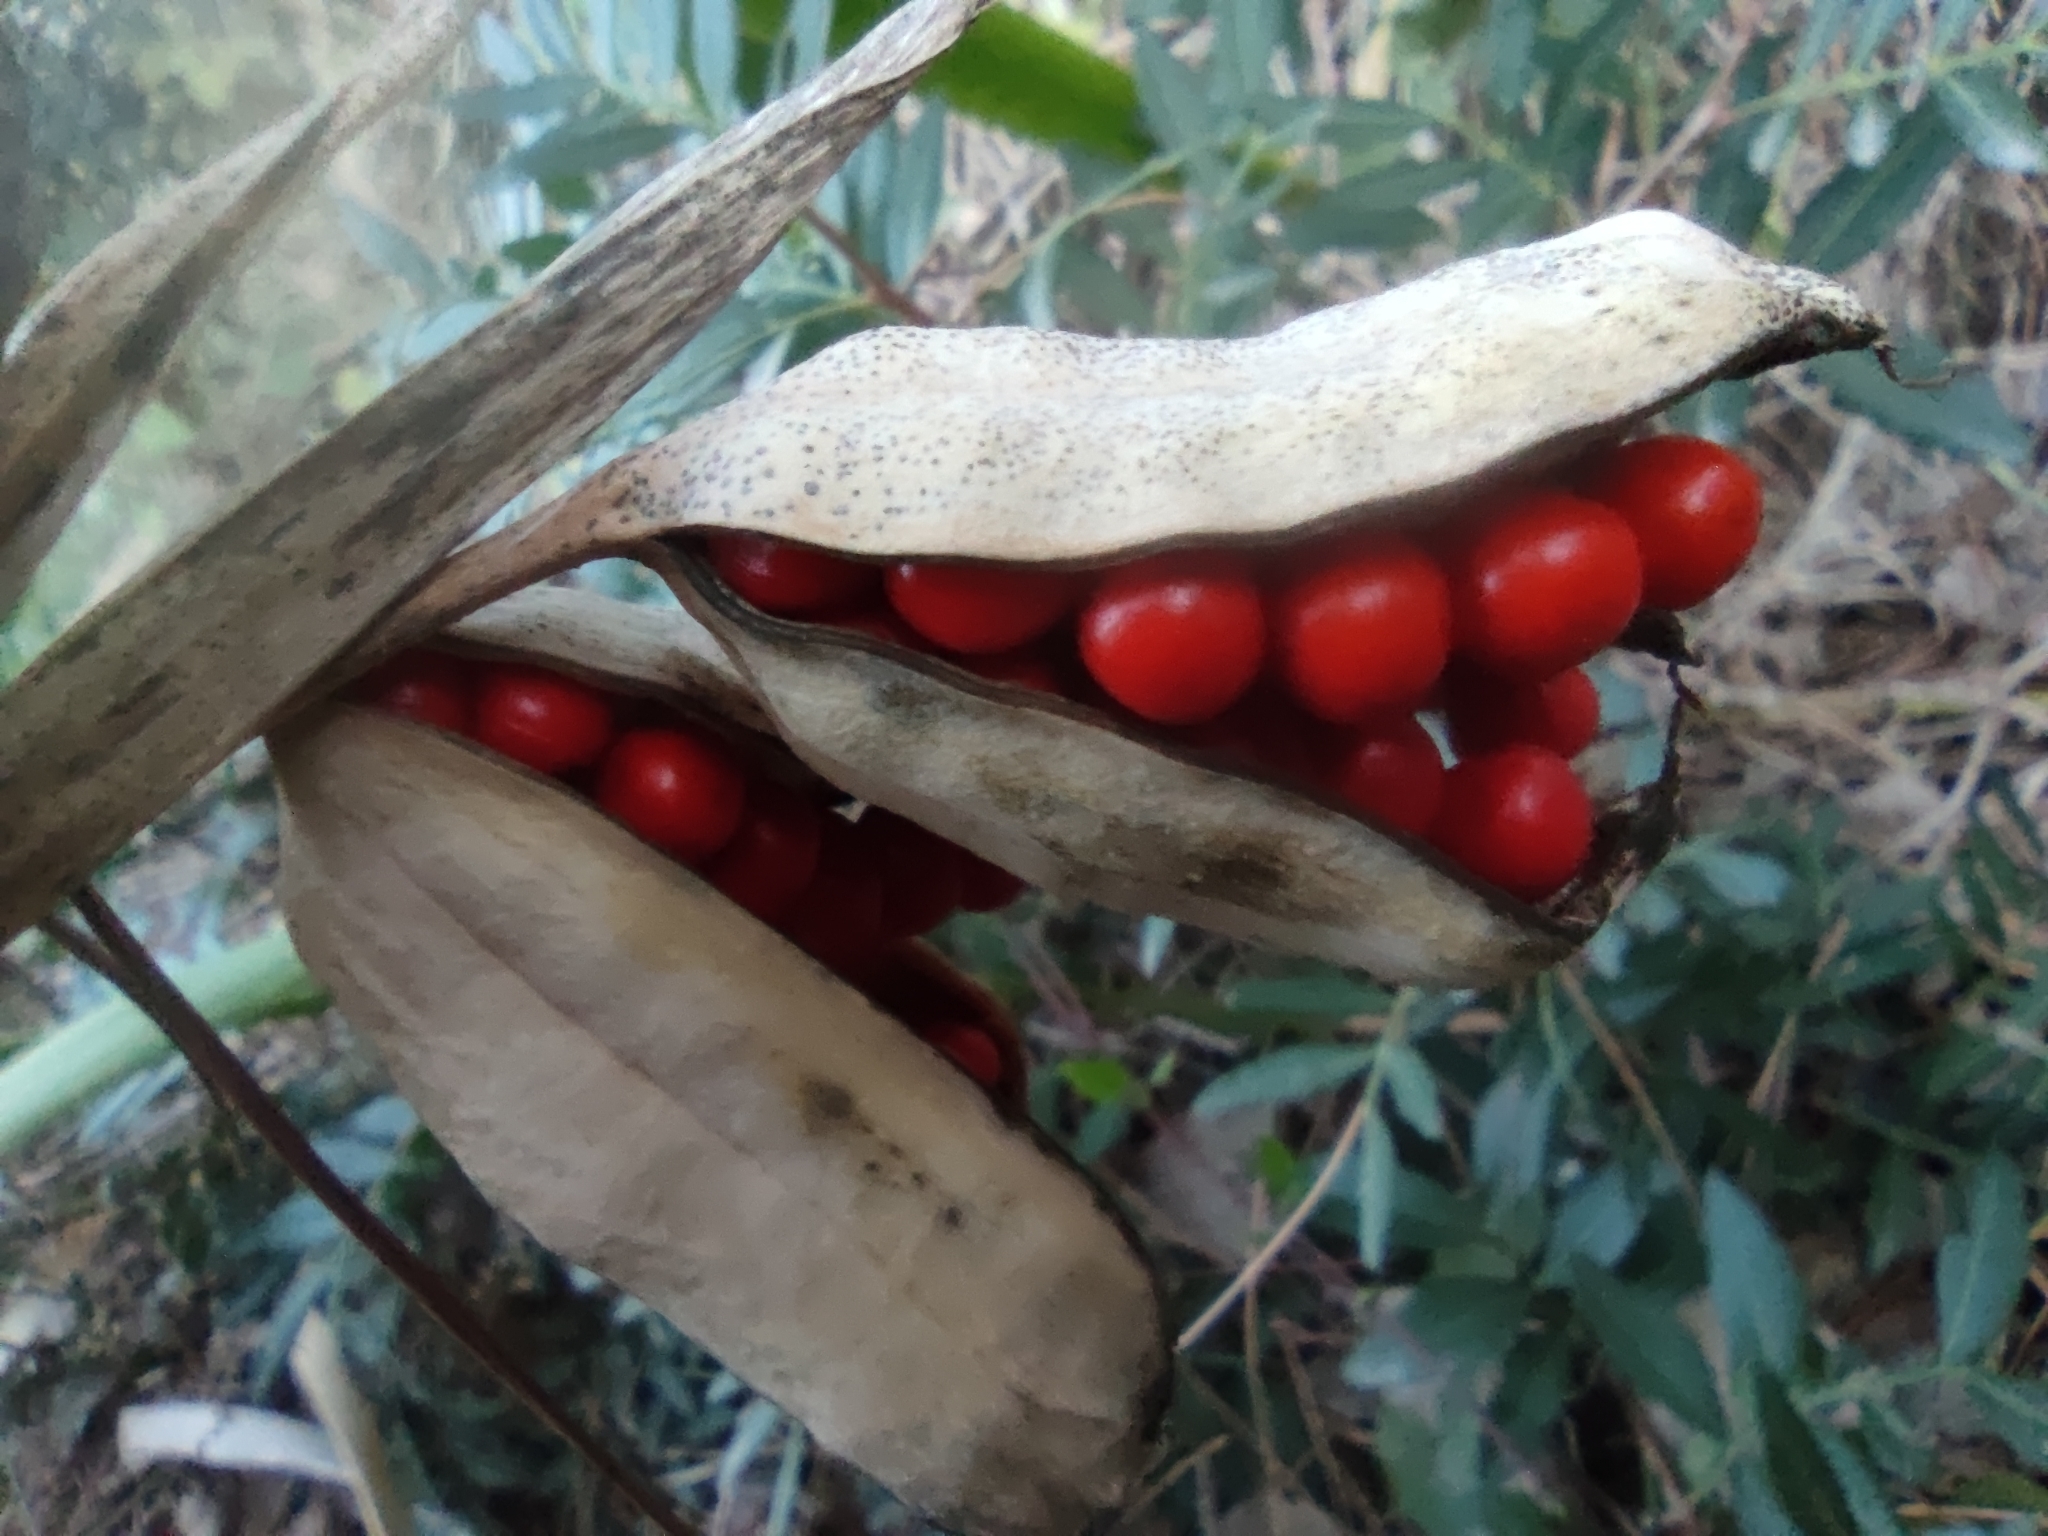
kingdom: Plantae
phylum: Tracheophyta
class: Liliopsida
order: Asparagales
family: Iridaceae
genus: Iris
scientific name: Iris foetidissima
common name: Stinking iris
